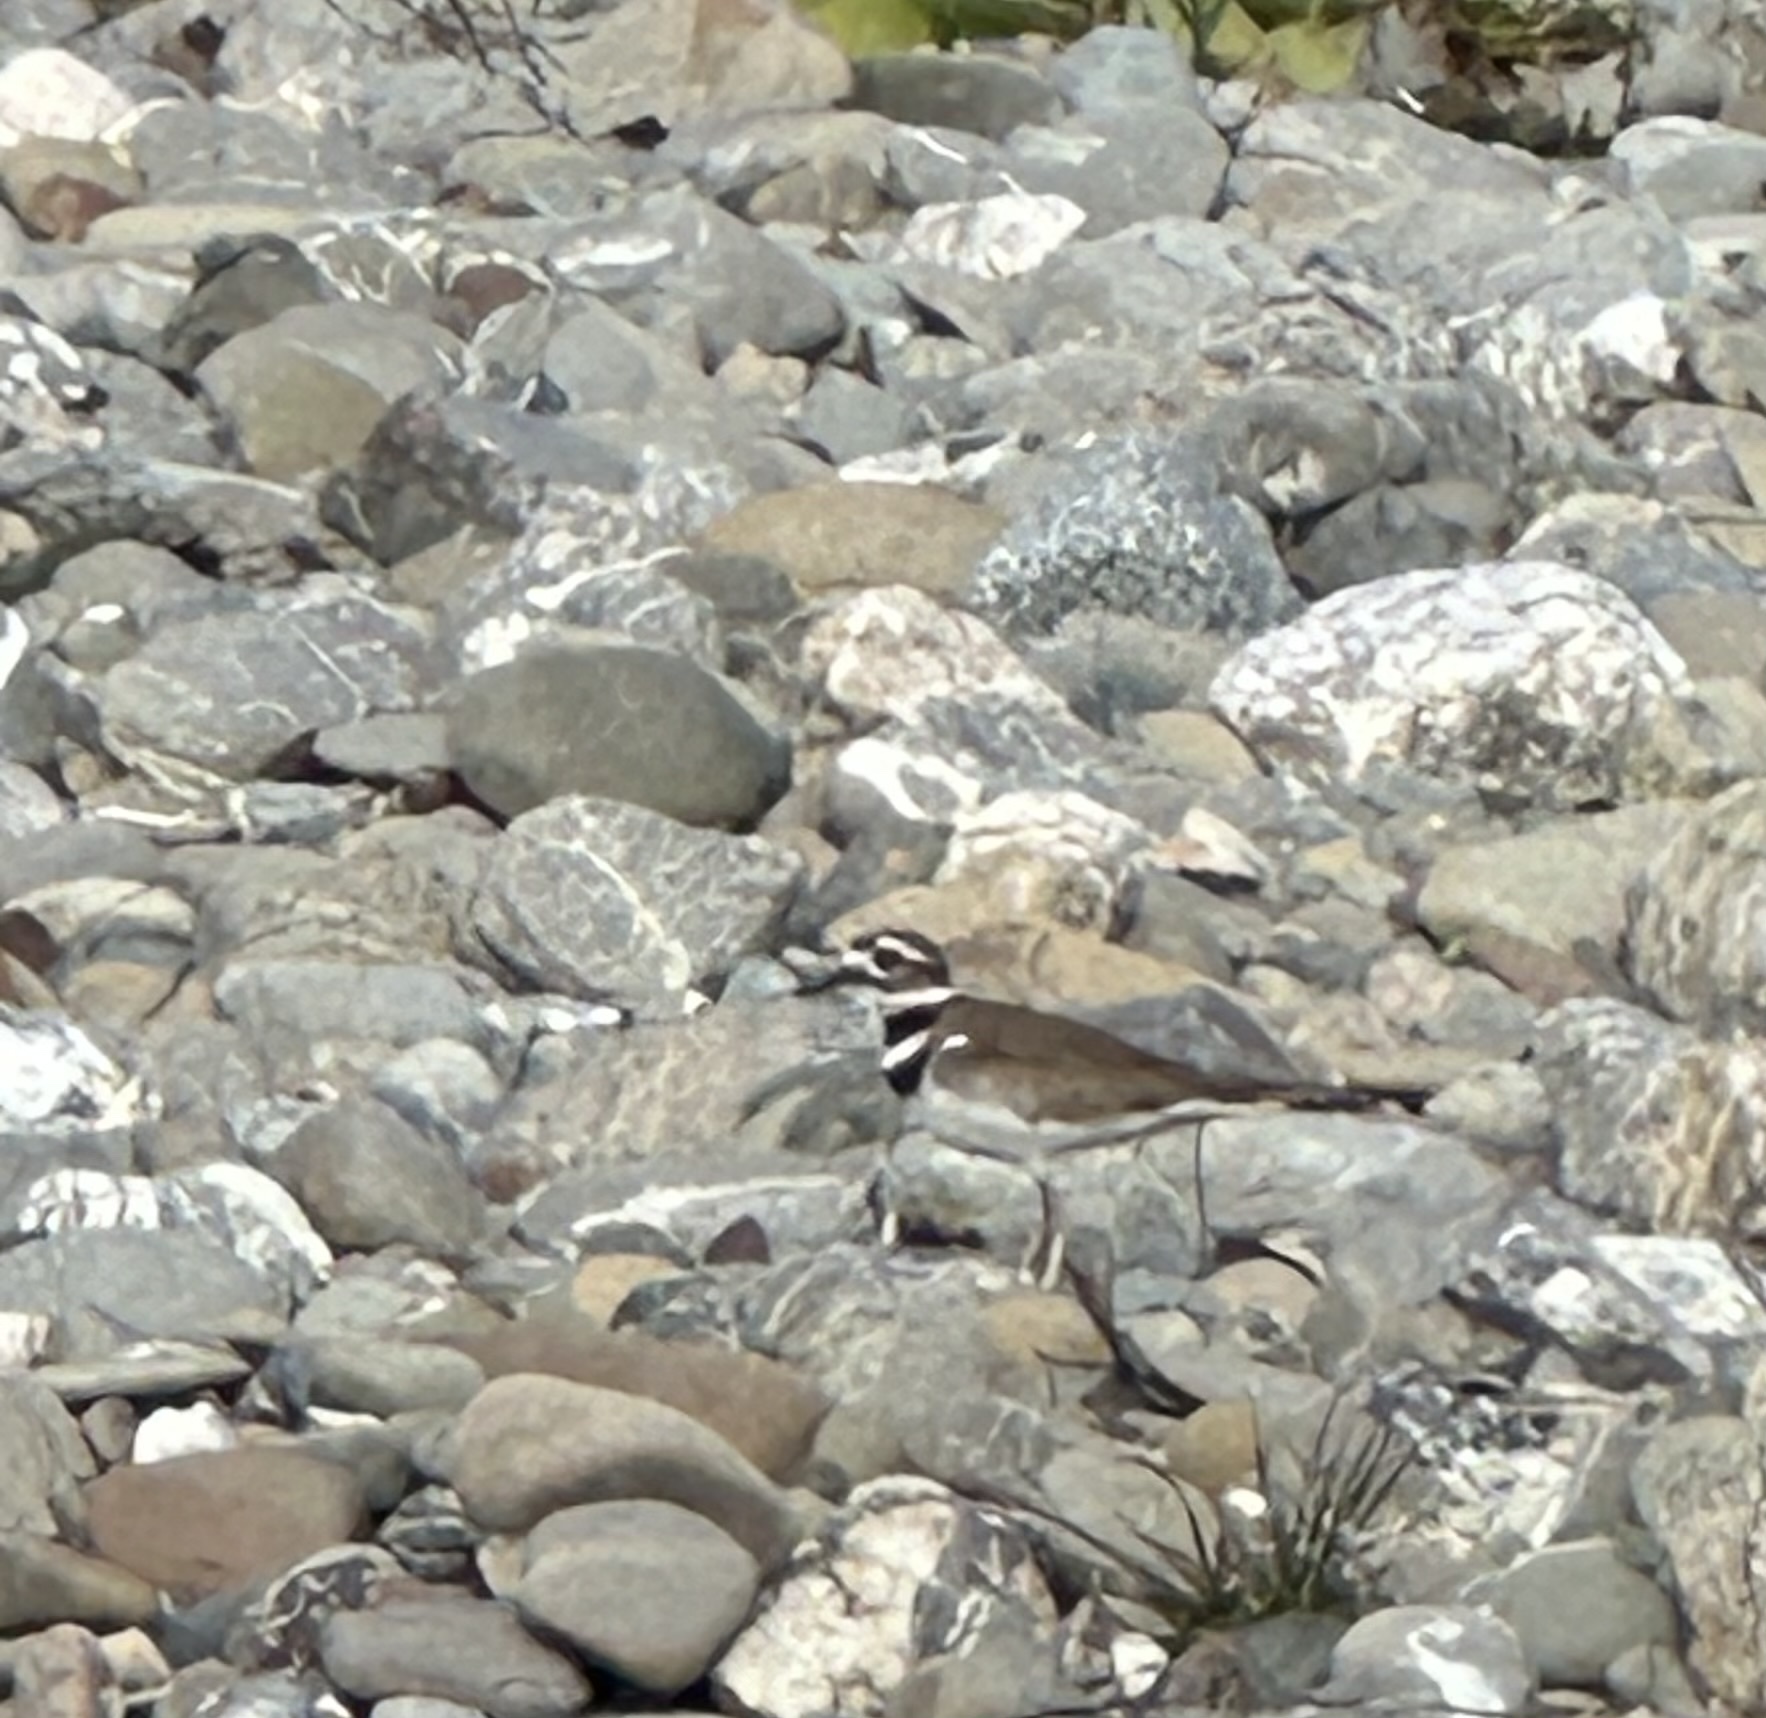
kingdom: Animalia
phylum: Chordata
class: Aves
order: Charadriiformes
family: Charadriidae
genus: Charadrius
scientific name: Charadrius vociferus
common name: Killdeer
